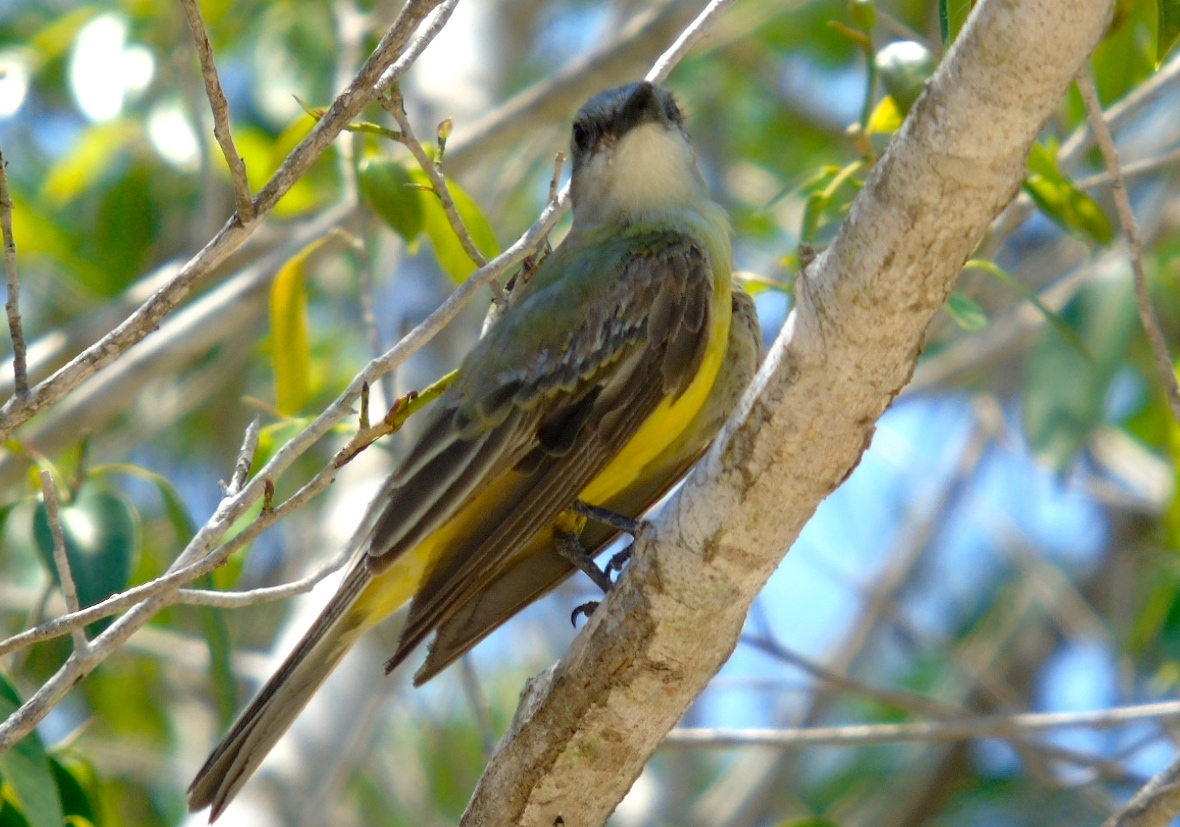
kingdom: Animalia
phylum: Chordata
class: Aves
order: Passeriformes
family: Tyrannidae
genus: Tyrannus
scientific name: Tyrannus melancholicus
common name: Tropical kingbird
